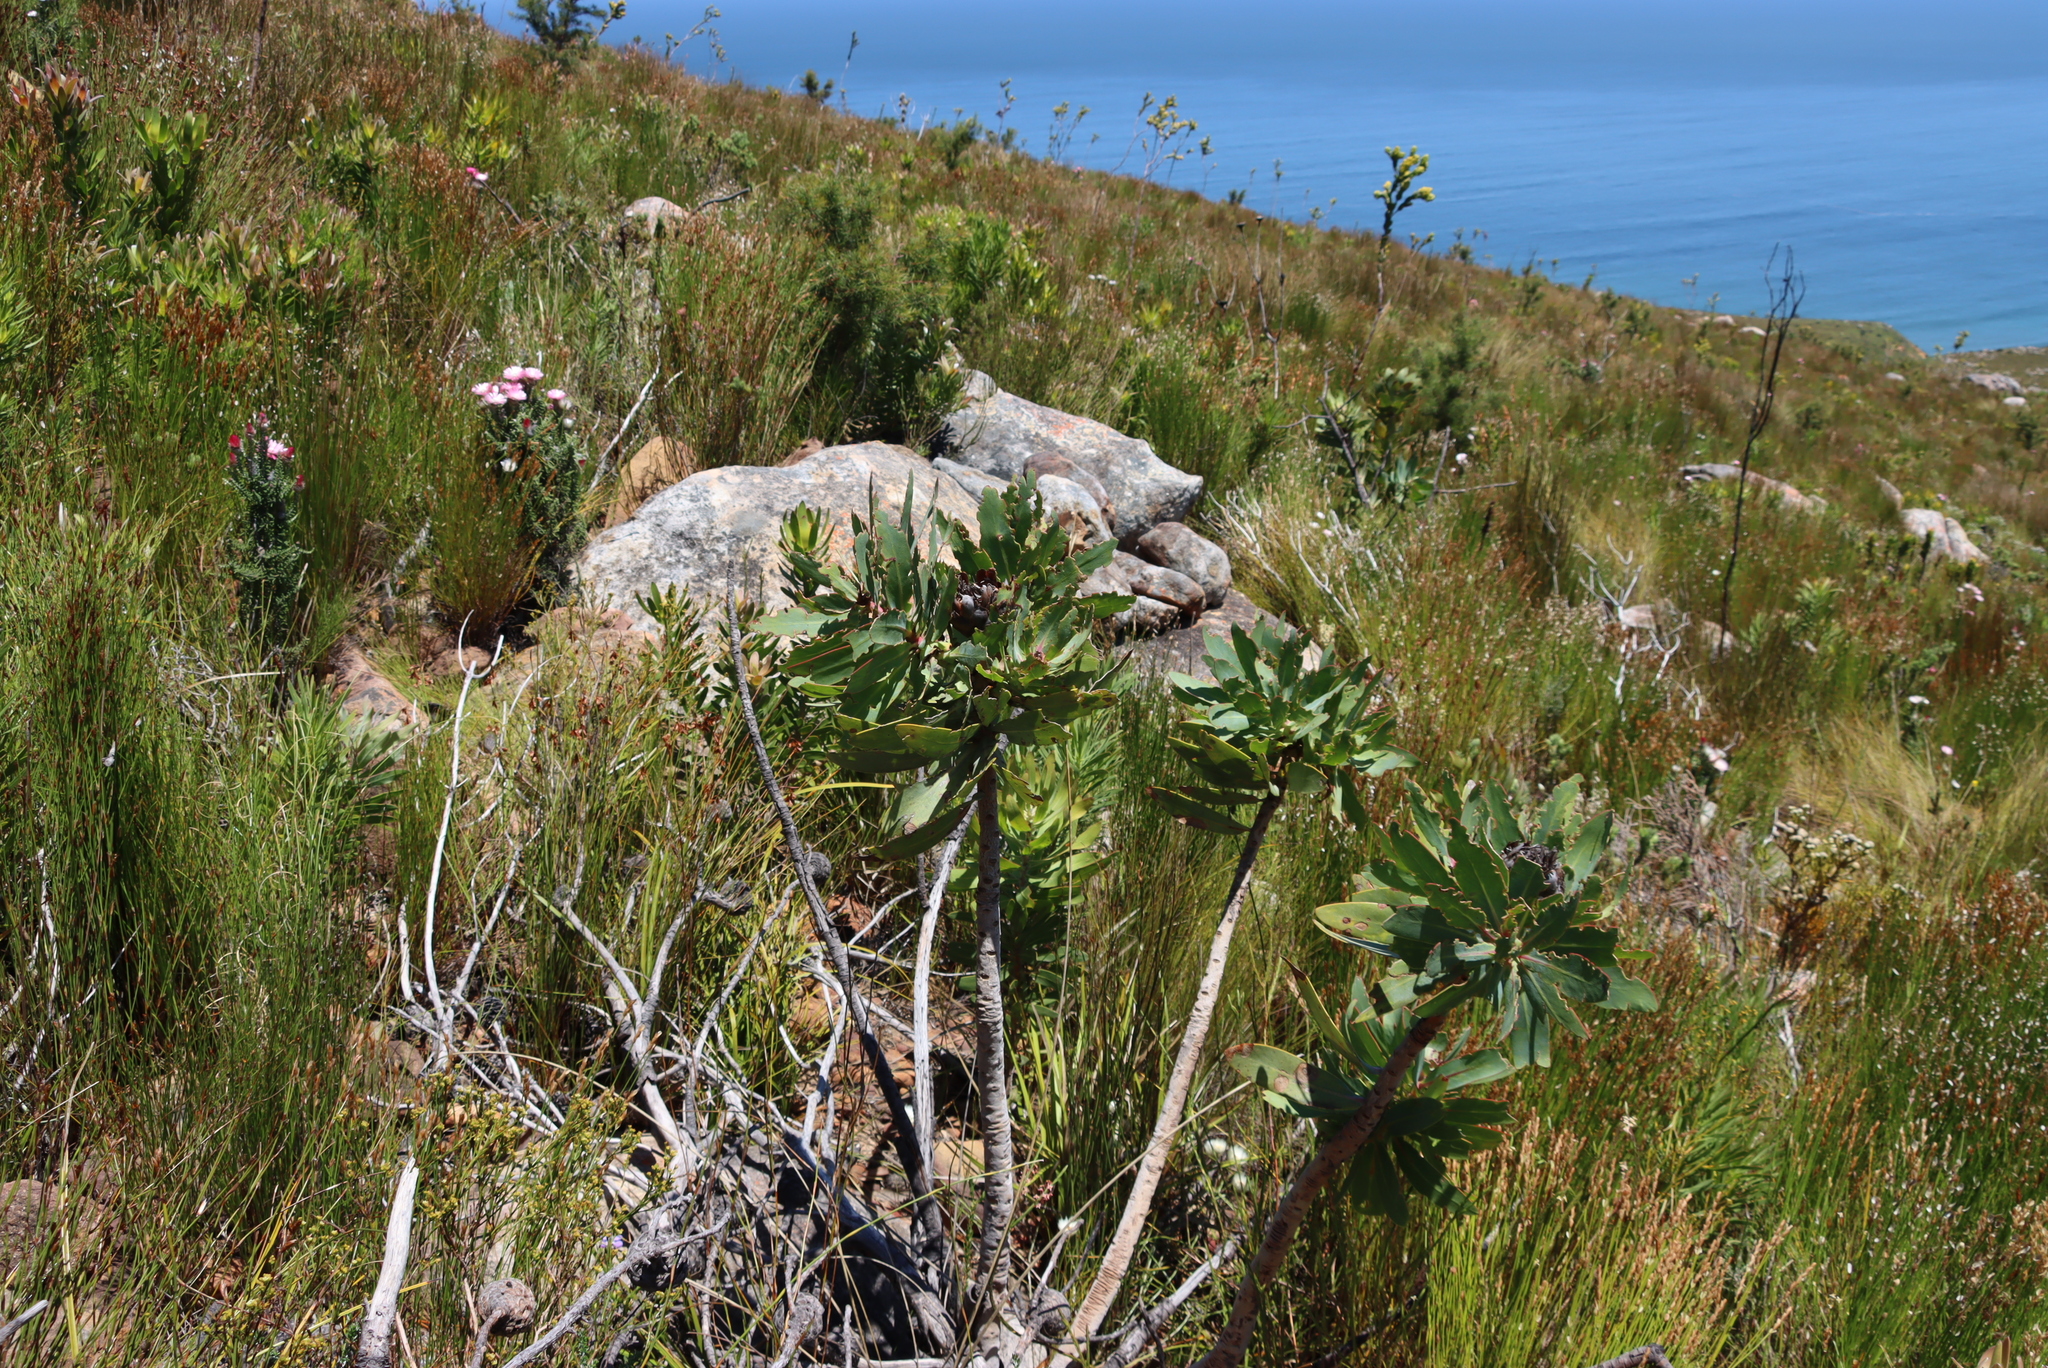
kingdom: Plantae
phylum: Tracheophyta
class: Magnoliopsida
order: Proteales
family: Proteaceae
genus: Protea
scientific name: Protea nitida
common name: Tree protea
